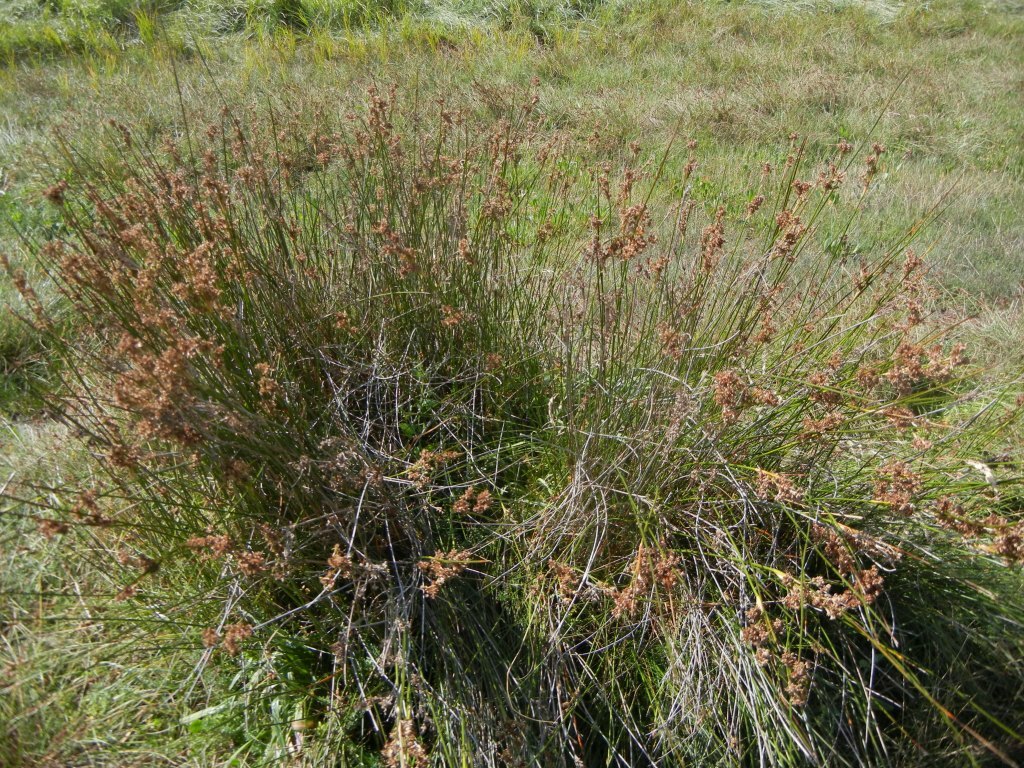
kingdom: Plantae
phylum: Tracheophyta
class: Liliopsida
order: Poales
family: Juncaceae
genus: Juncus
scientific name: Juncus maritimus
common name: Sea rush
